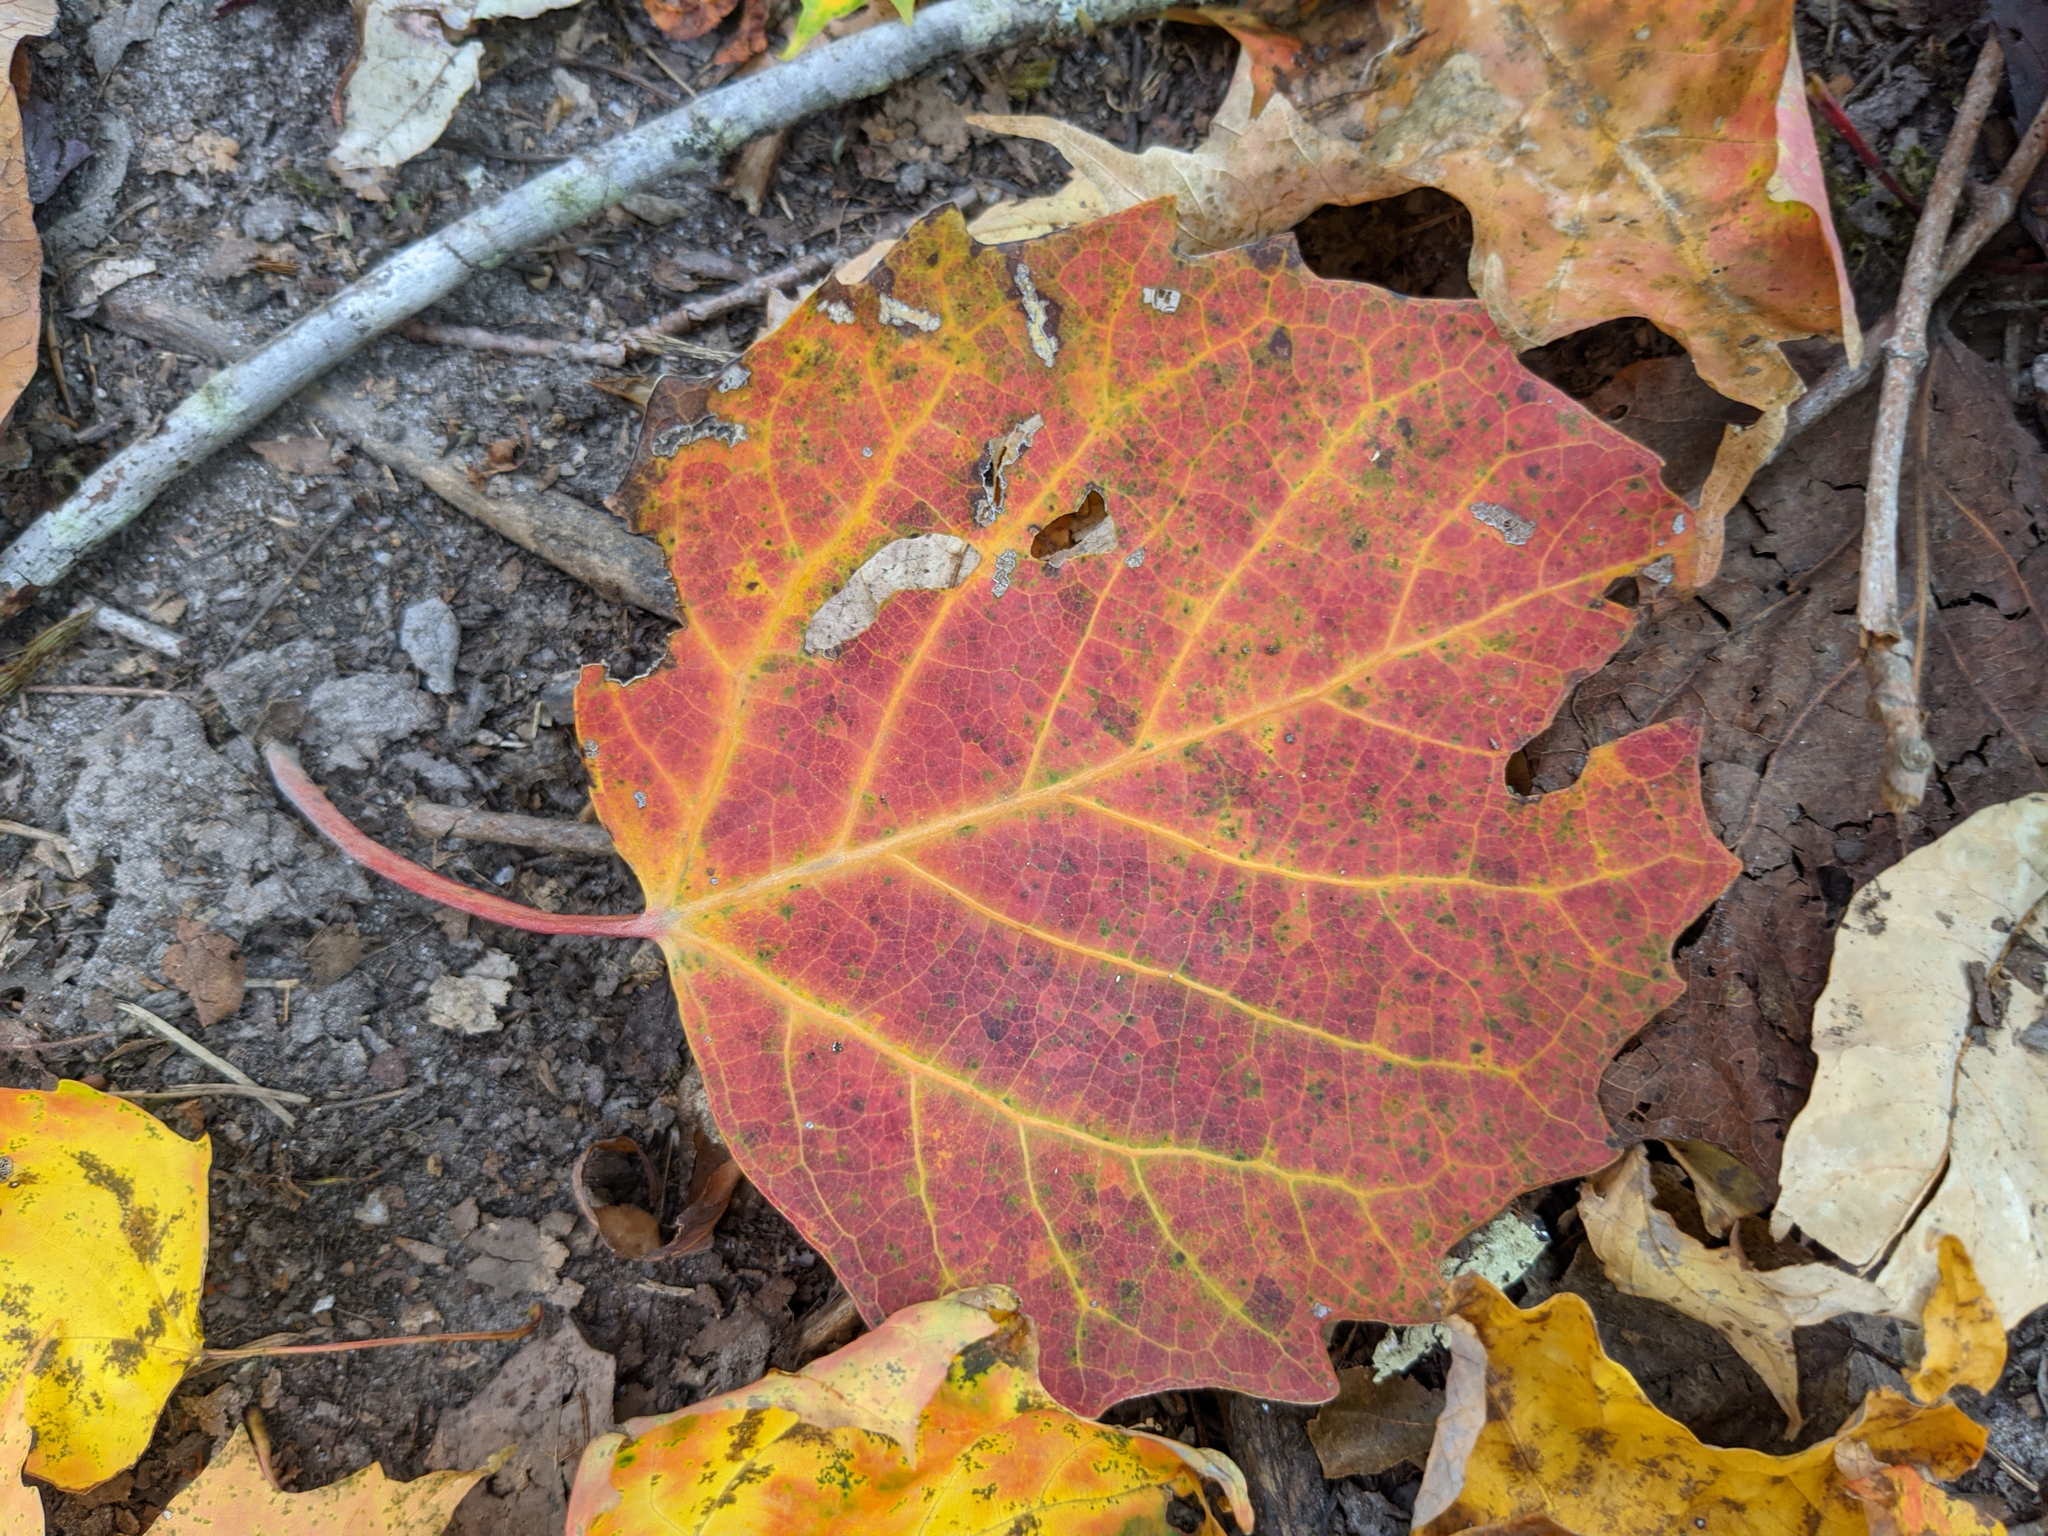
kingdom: Plantae
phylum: Tracheophyta
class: Magnoliopsida
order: Malpighiales
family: Salicaceae
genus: Populus
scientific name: Populus grandidentata
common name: Bigtooth aspen
